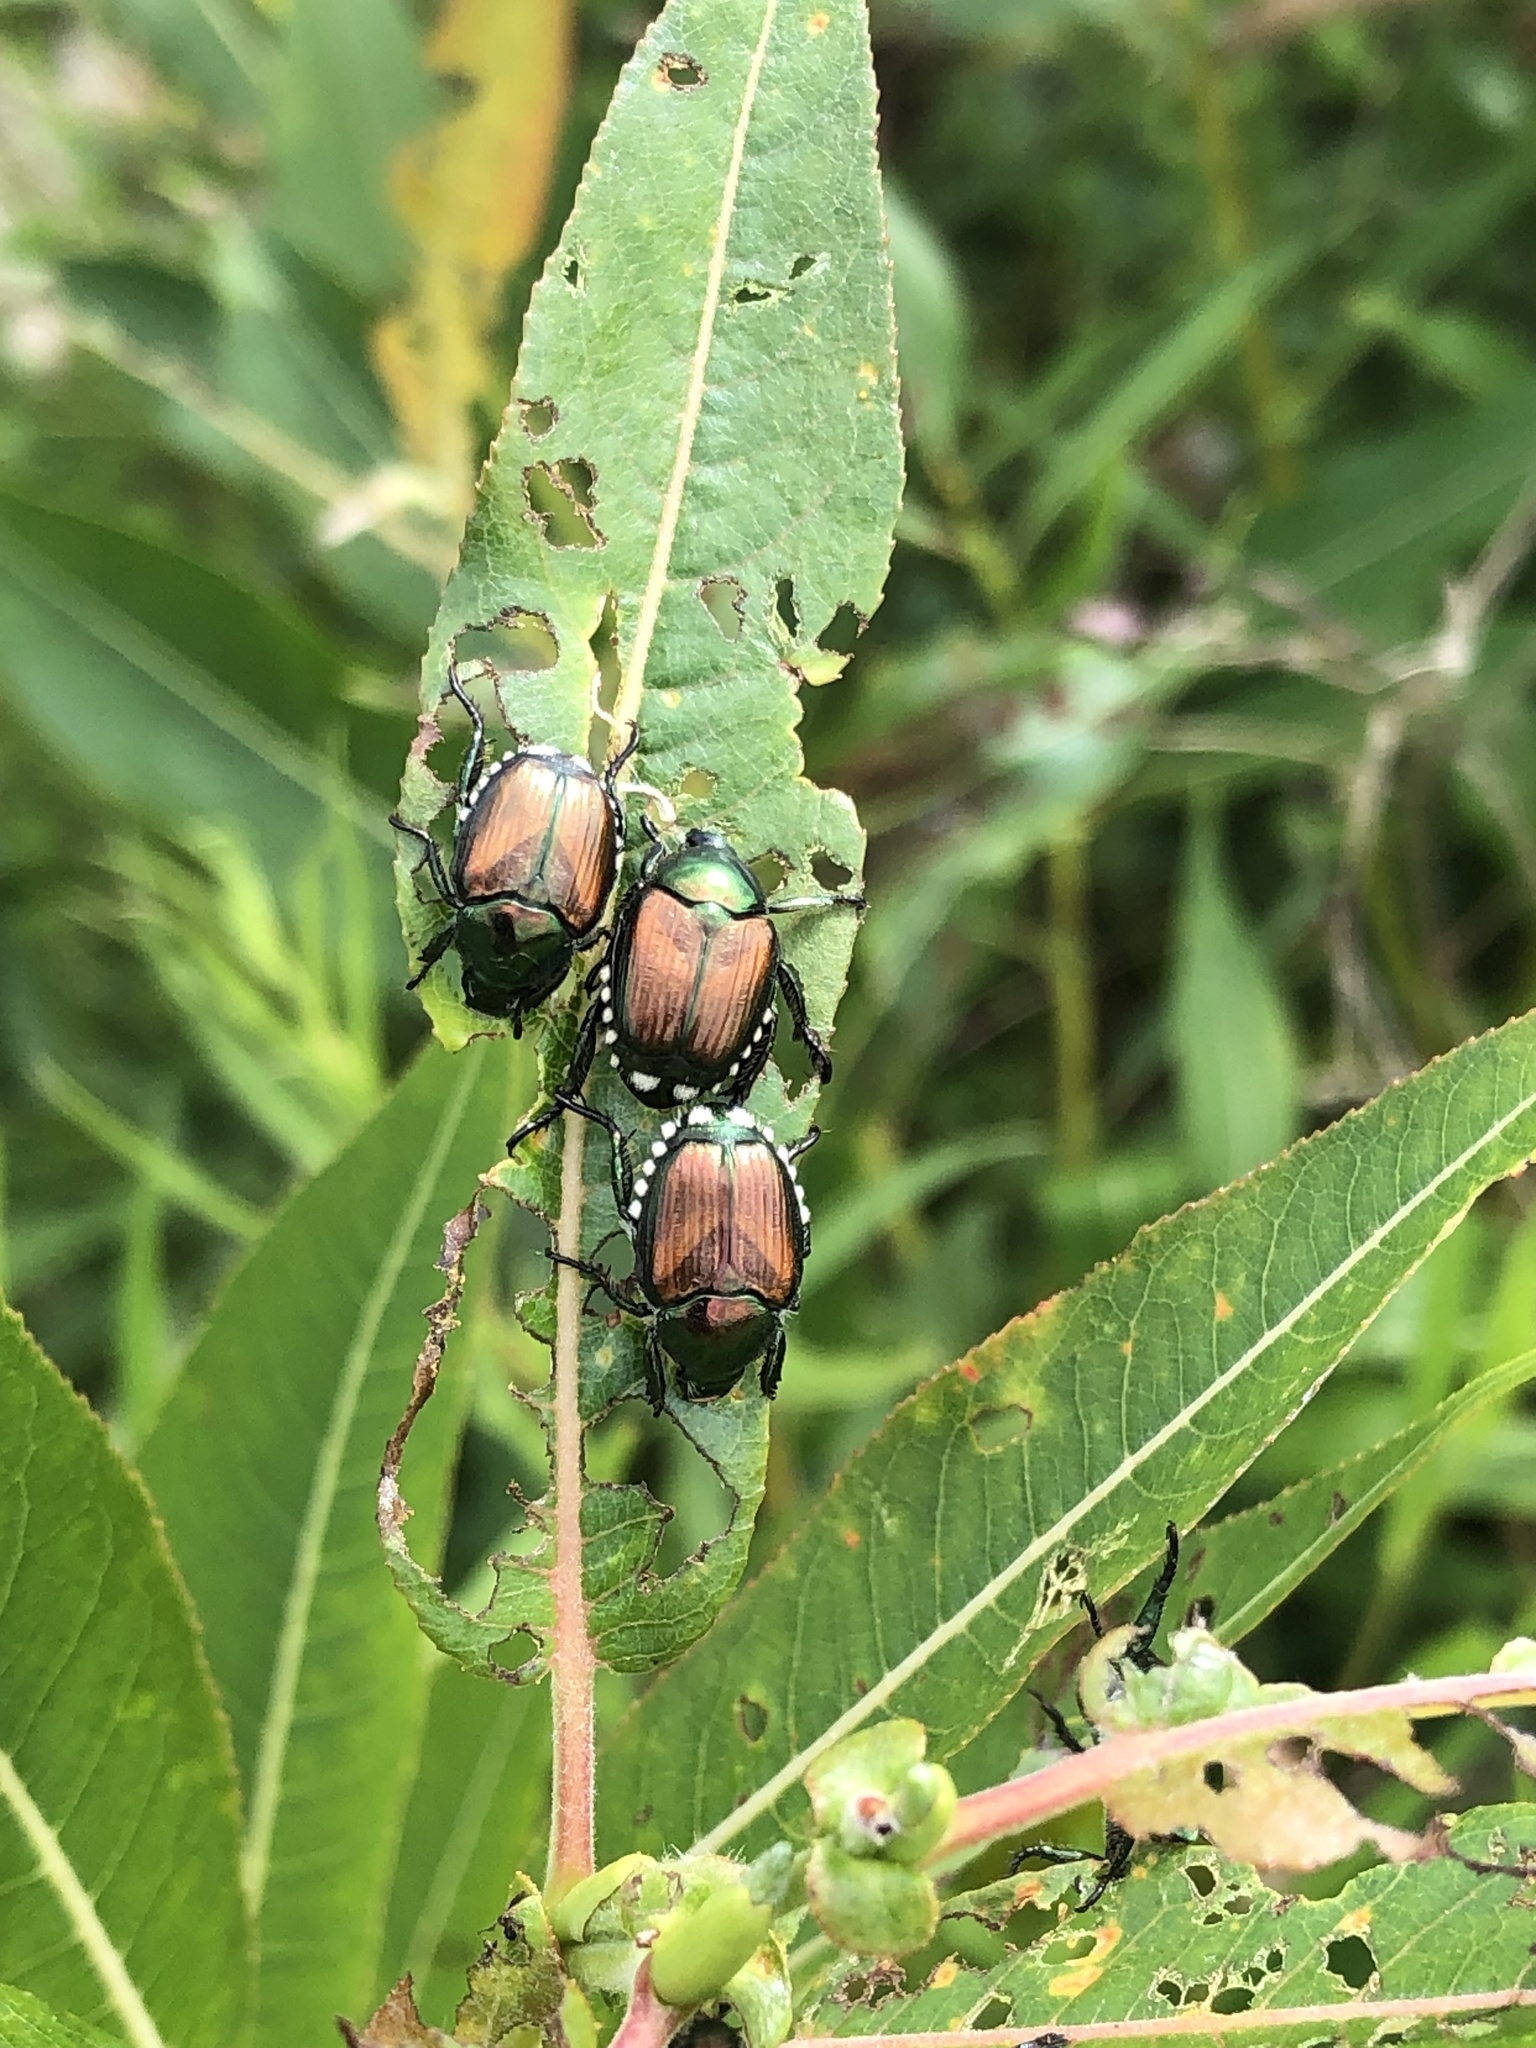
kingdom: Animalia
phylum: Arthropoda
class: Insecta
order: Coleoptera
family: Scarabaeidae
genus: Popillia
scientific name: Popillia japonica
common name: Japanese beetle
